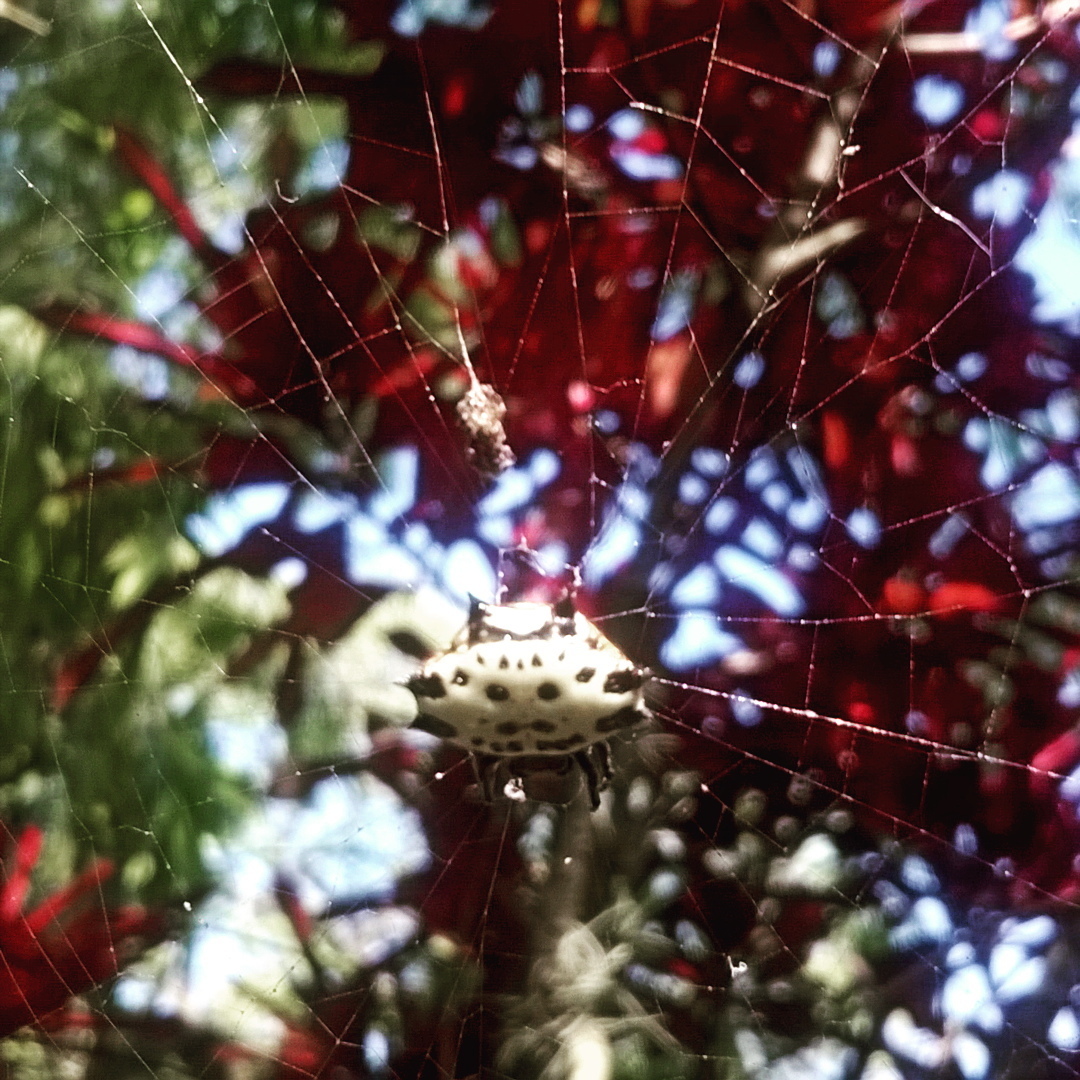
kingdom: Animalia
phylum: Arthropoda
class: Arachnida
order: Araneae
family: Araneidae
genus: Gasteracantha
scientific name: Gasteracantha cancriformis
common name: Orb weavers
